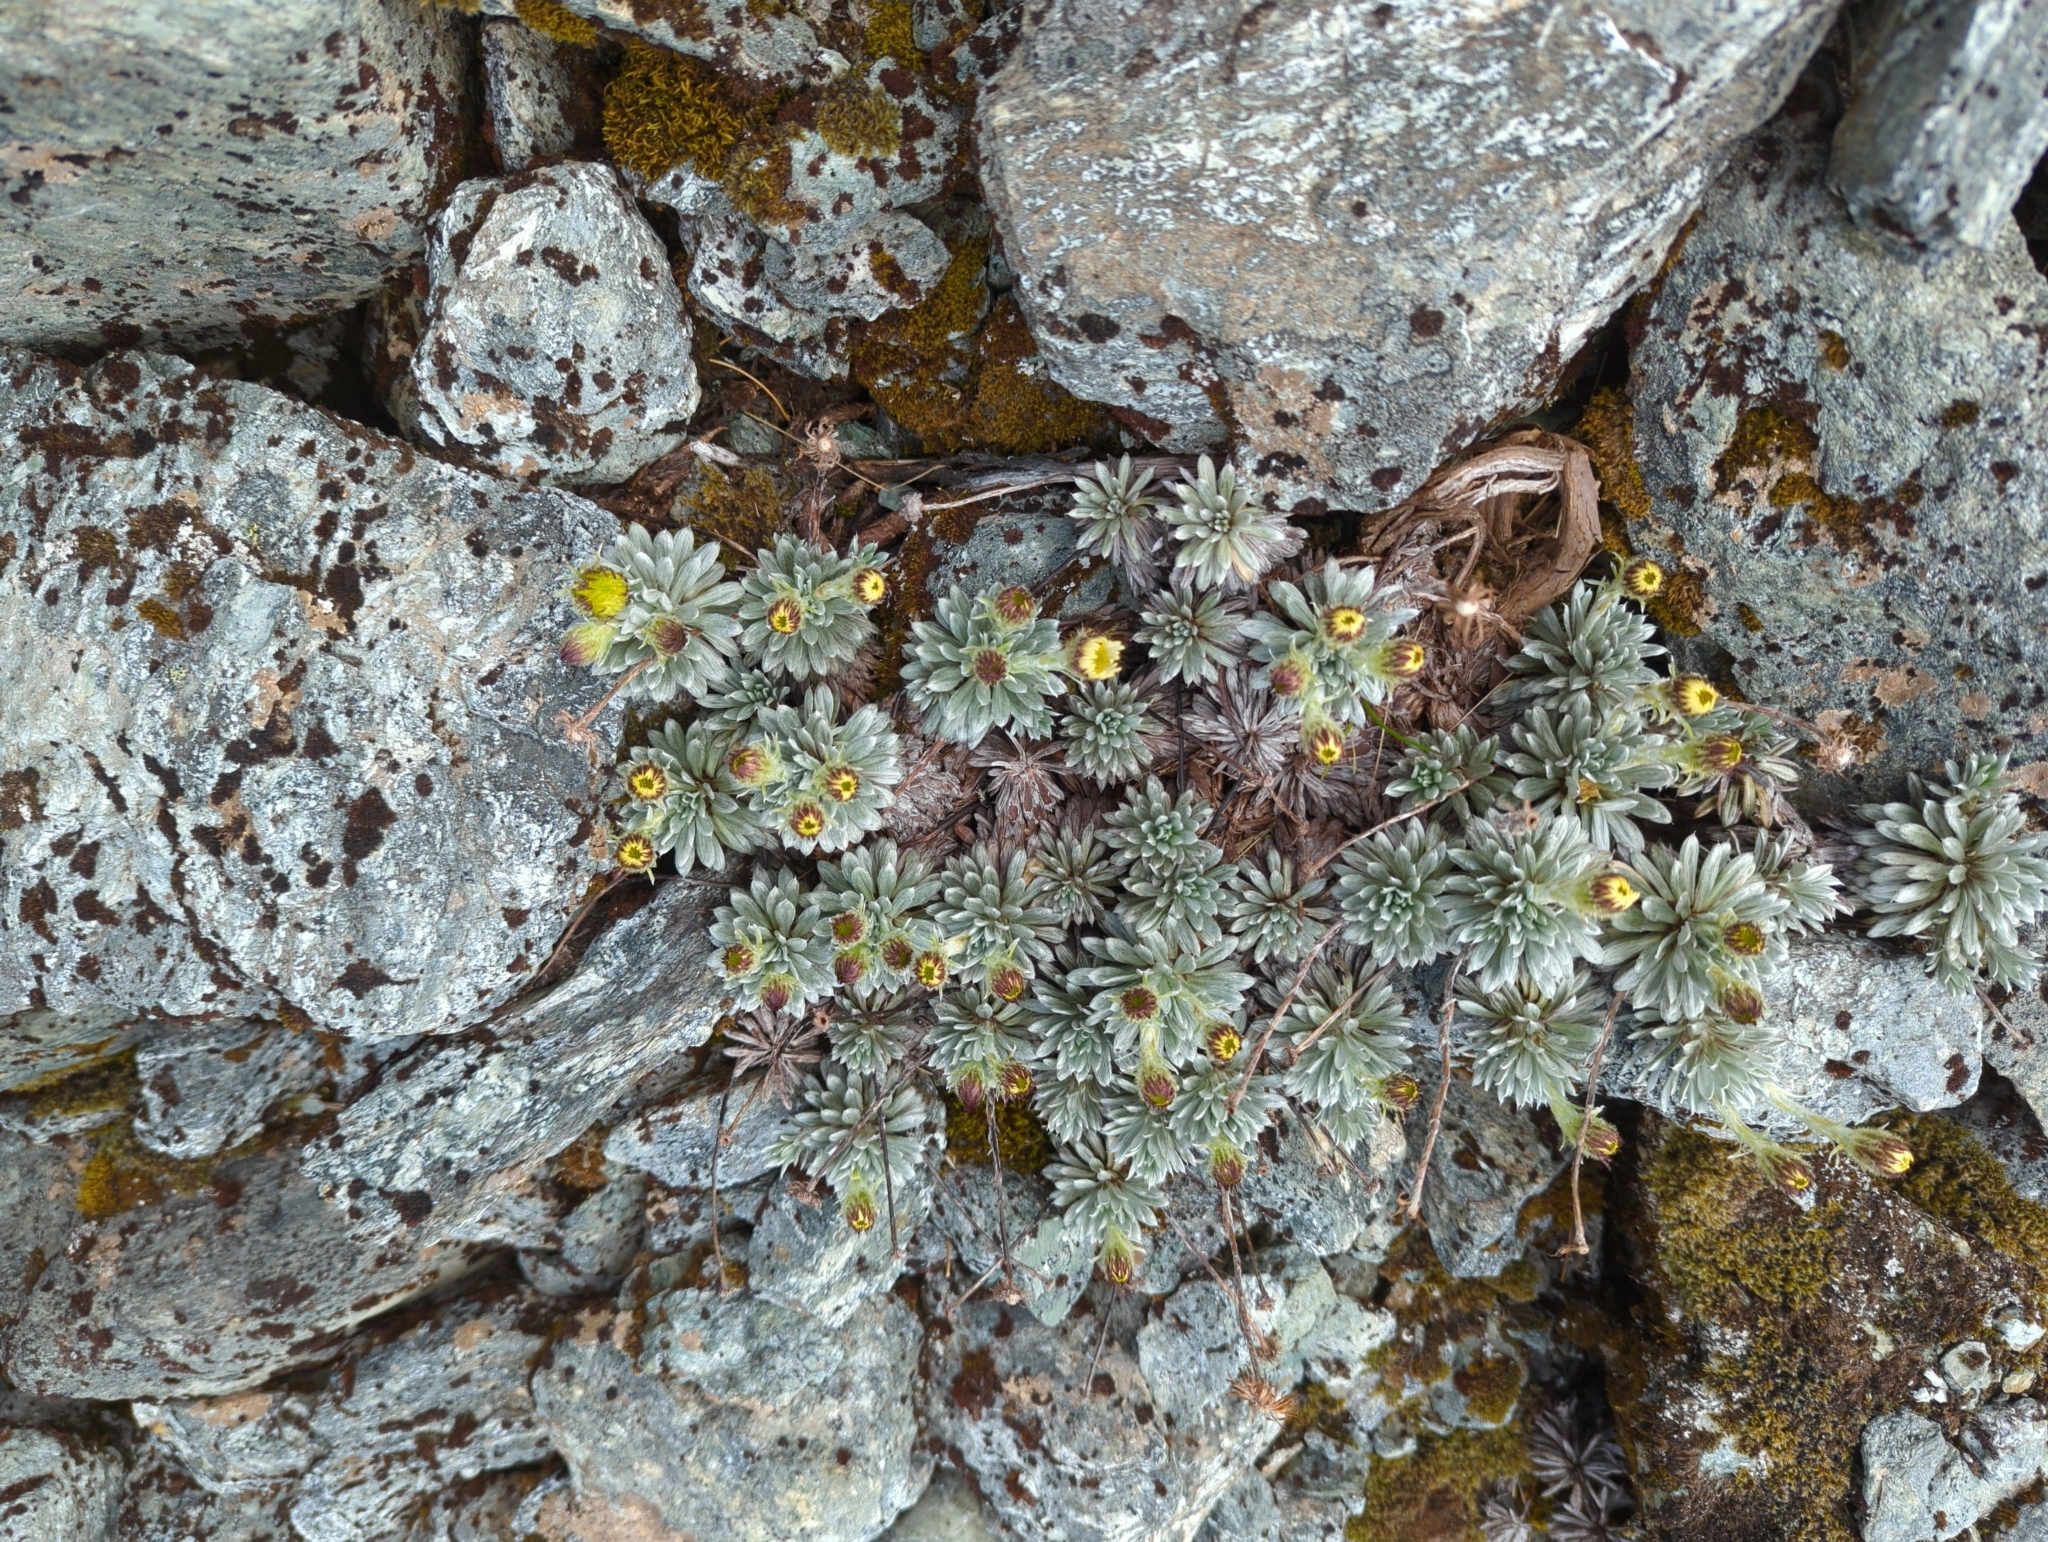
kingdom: Plantae
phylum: Tracheophyta
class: Magnoliopsida
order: Asterales
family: Asteraceae
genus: Celmisia
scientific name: Celmisia hectorii
